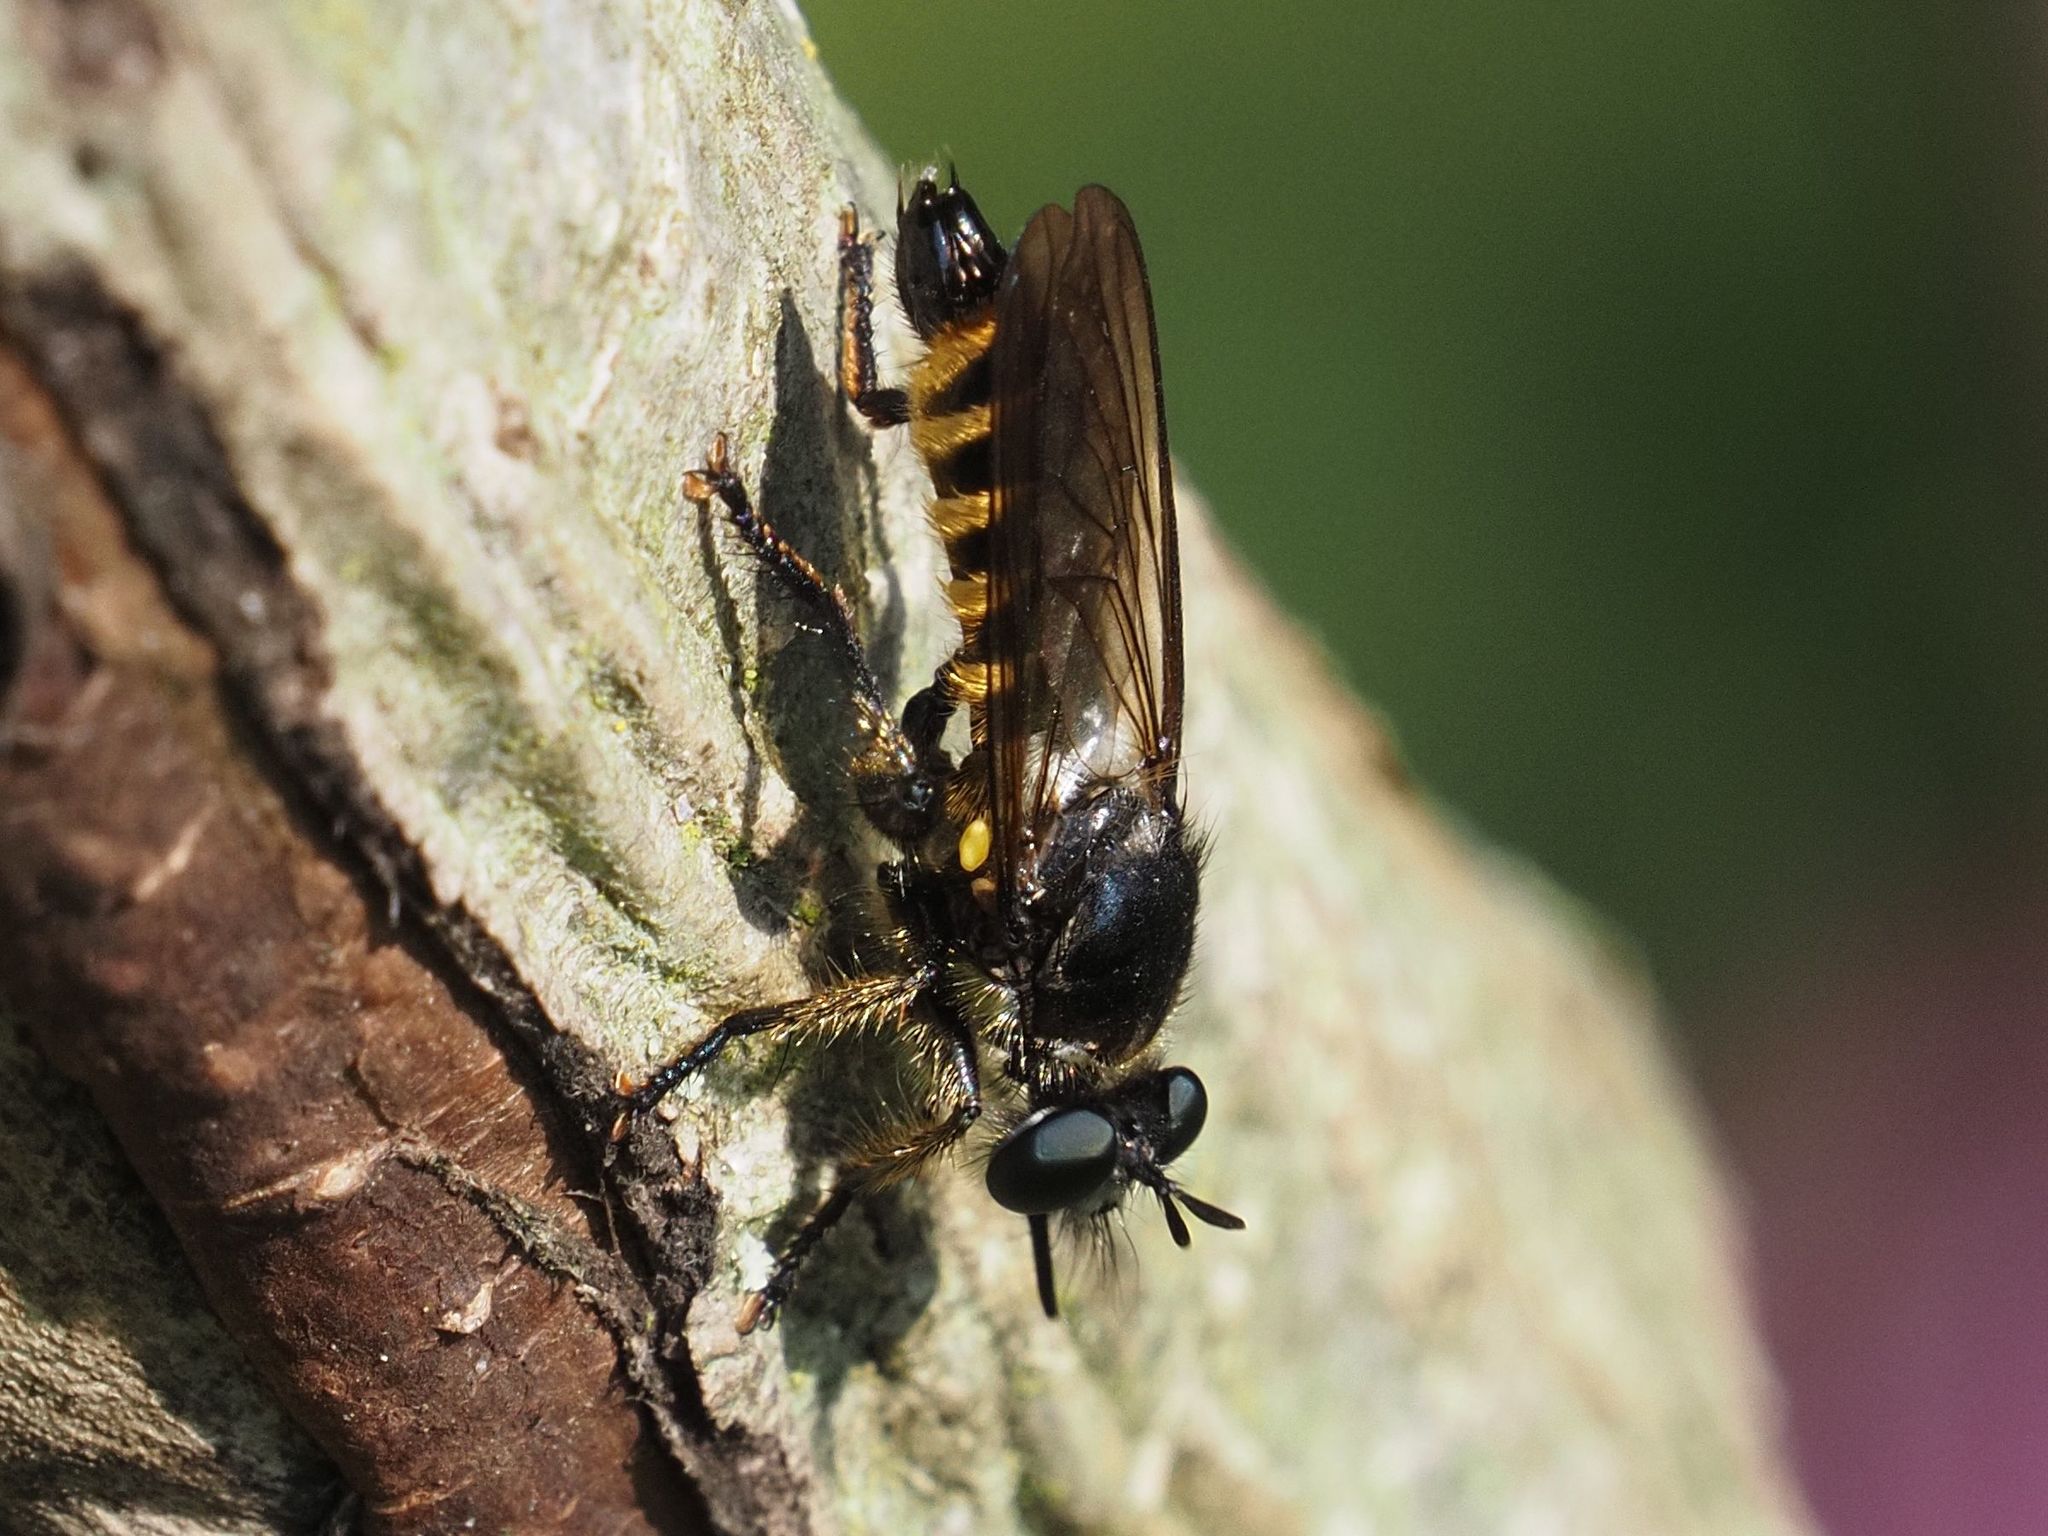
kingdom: Animalia
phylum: Arthropoda
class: Insecta
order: Diptera
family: Asilidae
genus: Lamyra
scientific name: Lamyra fimbriata
